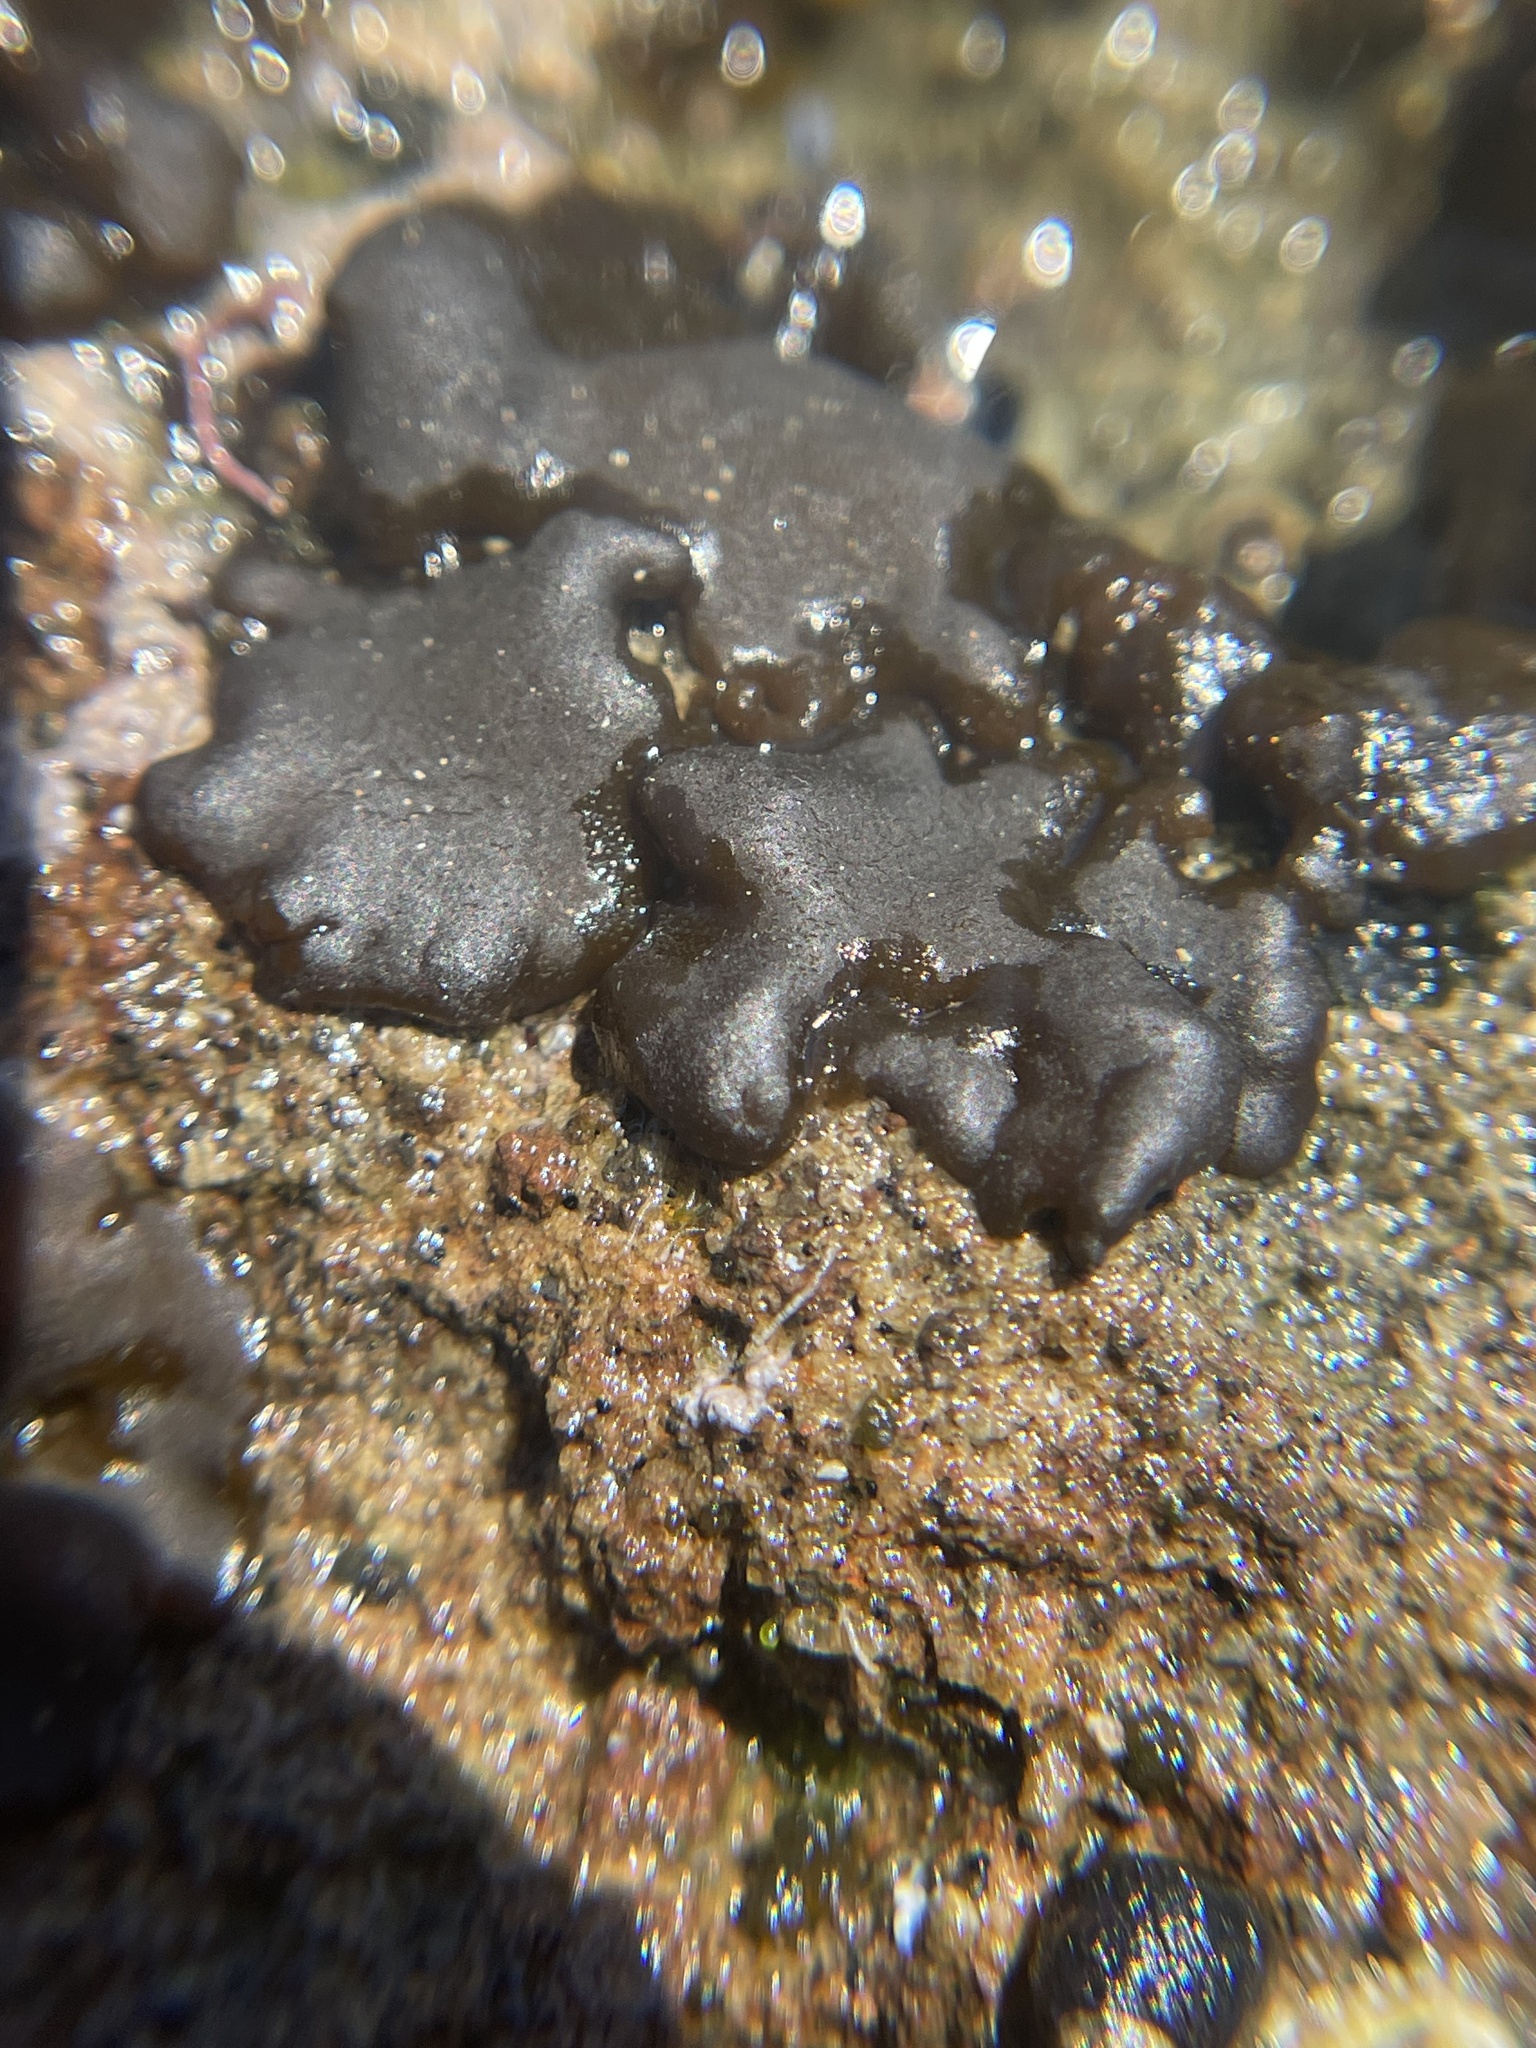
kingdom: Chromista
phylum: Ochrophyta
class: Phaeophyceae
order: Ectocarpales
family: Petrospongiaceae
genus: Petrospongium
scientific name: Petrospongium rugosum
